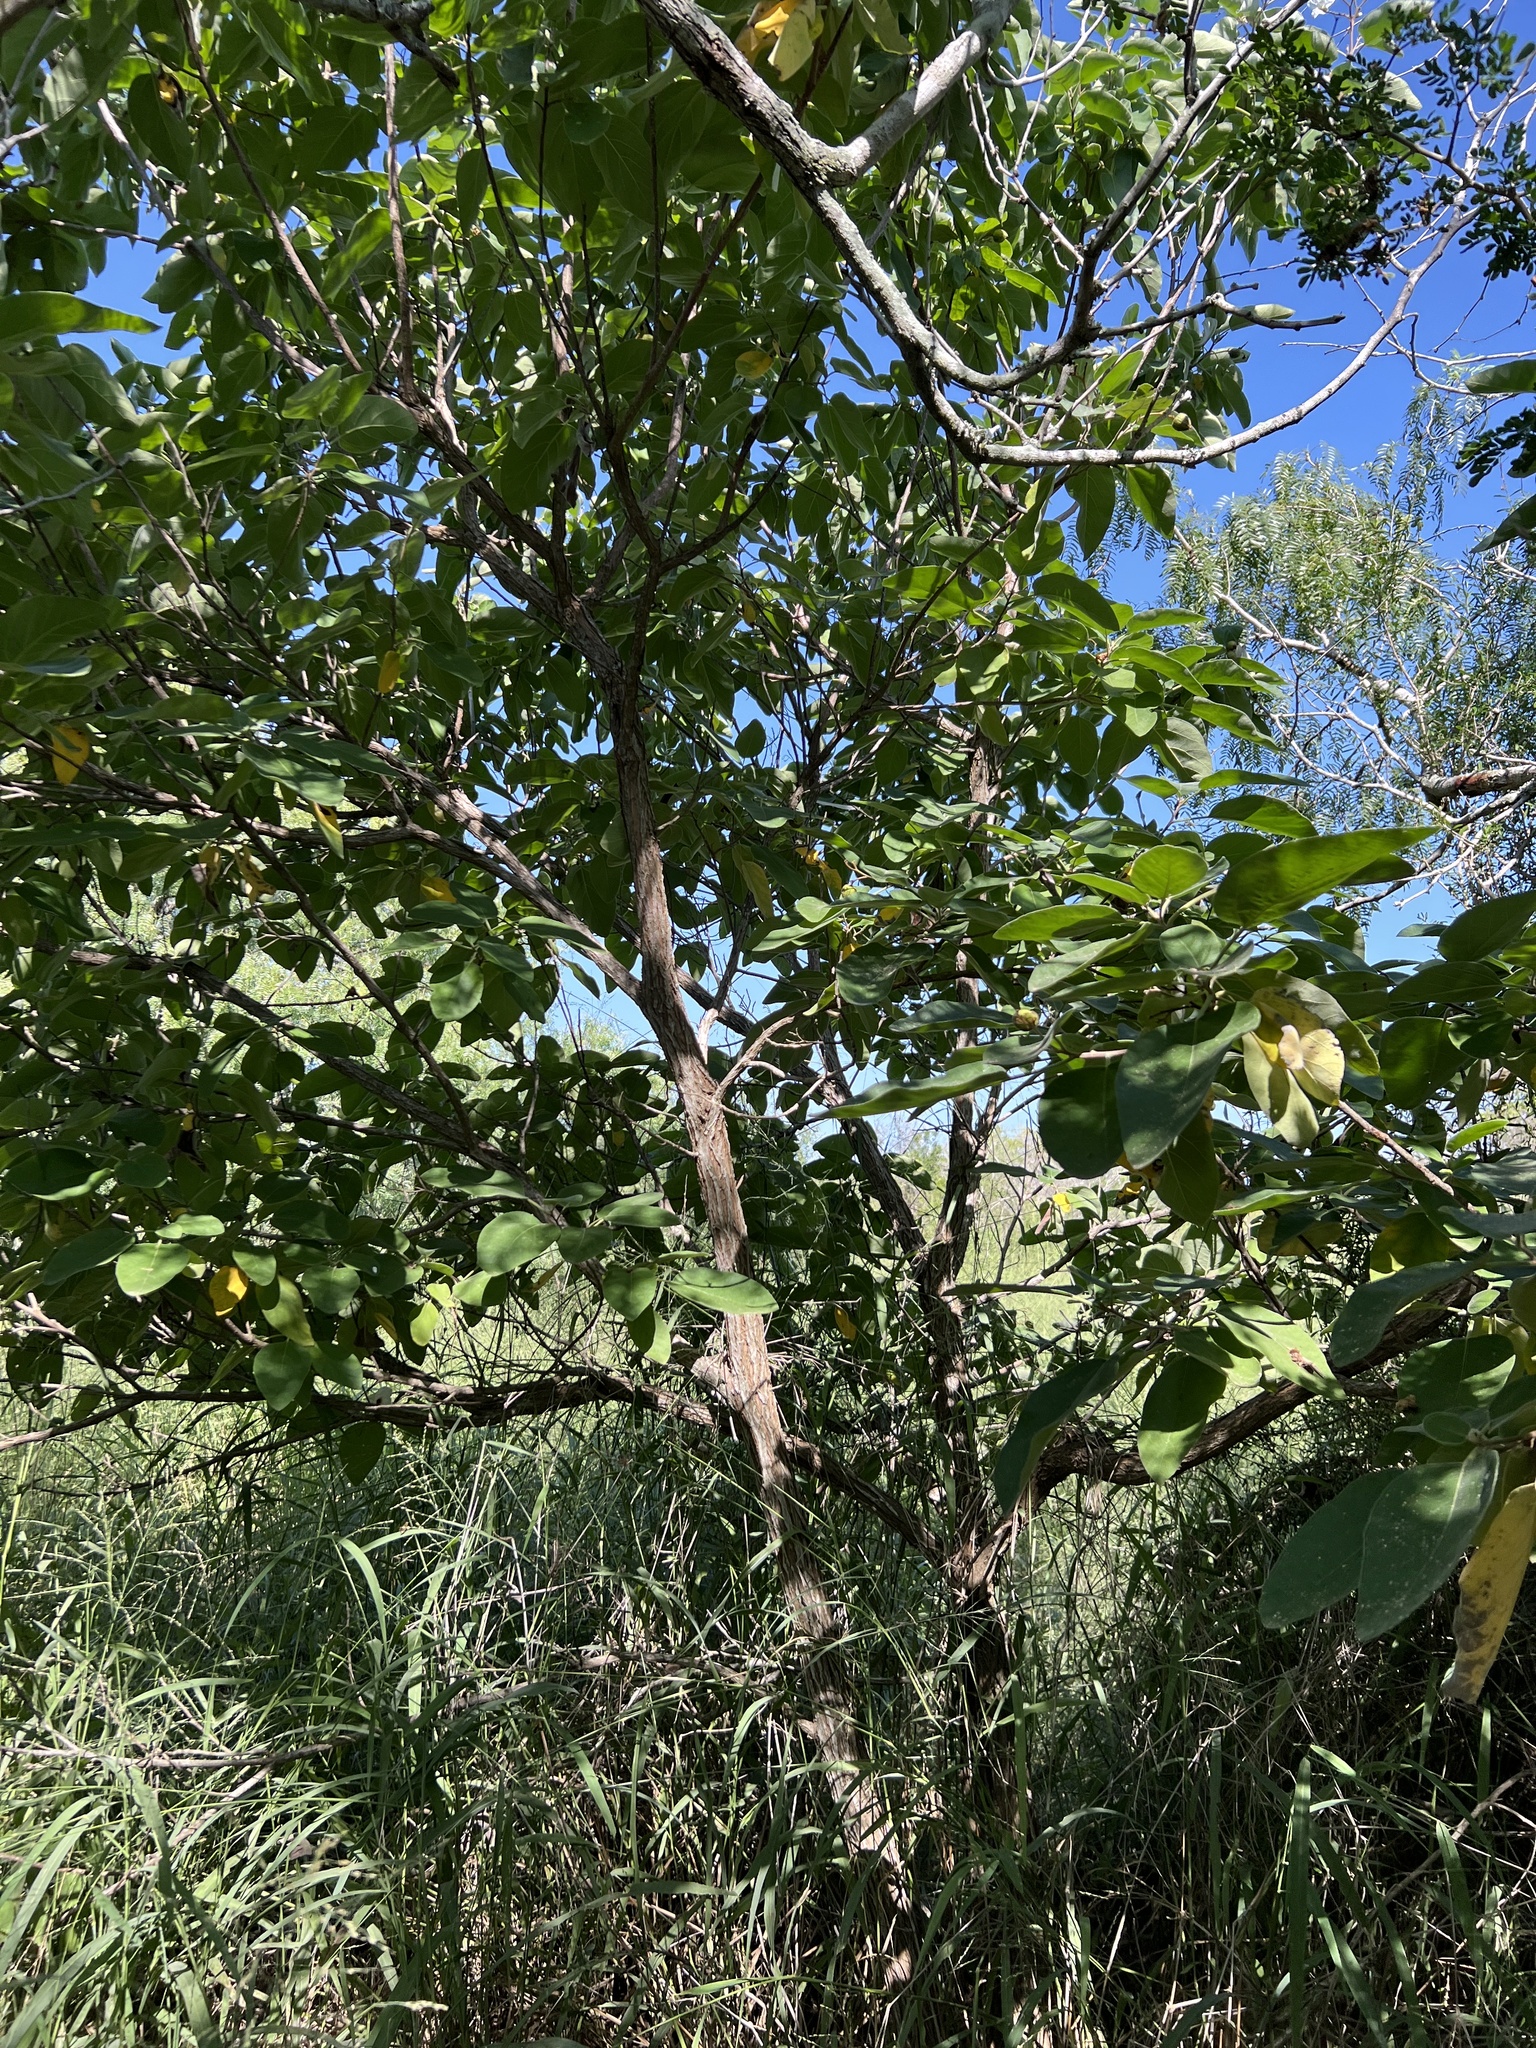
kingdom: Plantae
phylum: Tracheophyta
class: Magnoliopsida
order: Boraginales
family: Cordiaceae
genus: Cordia
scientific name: Cordia boissieri
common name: Mexican-olive
